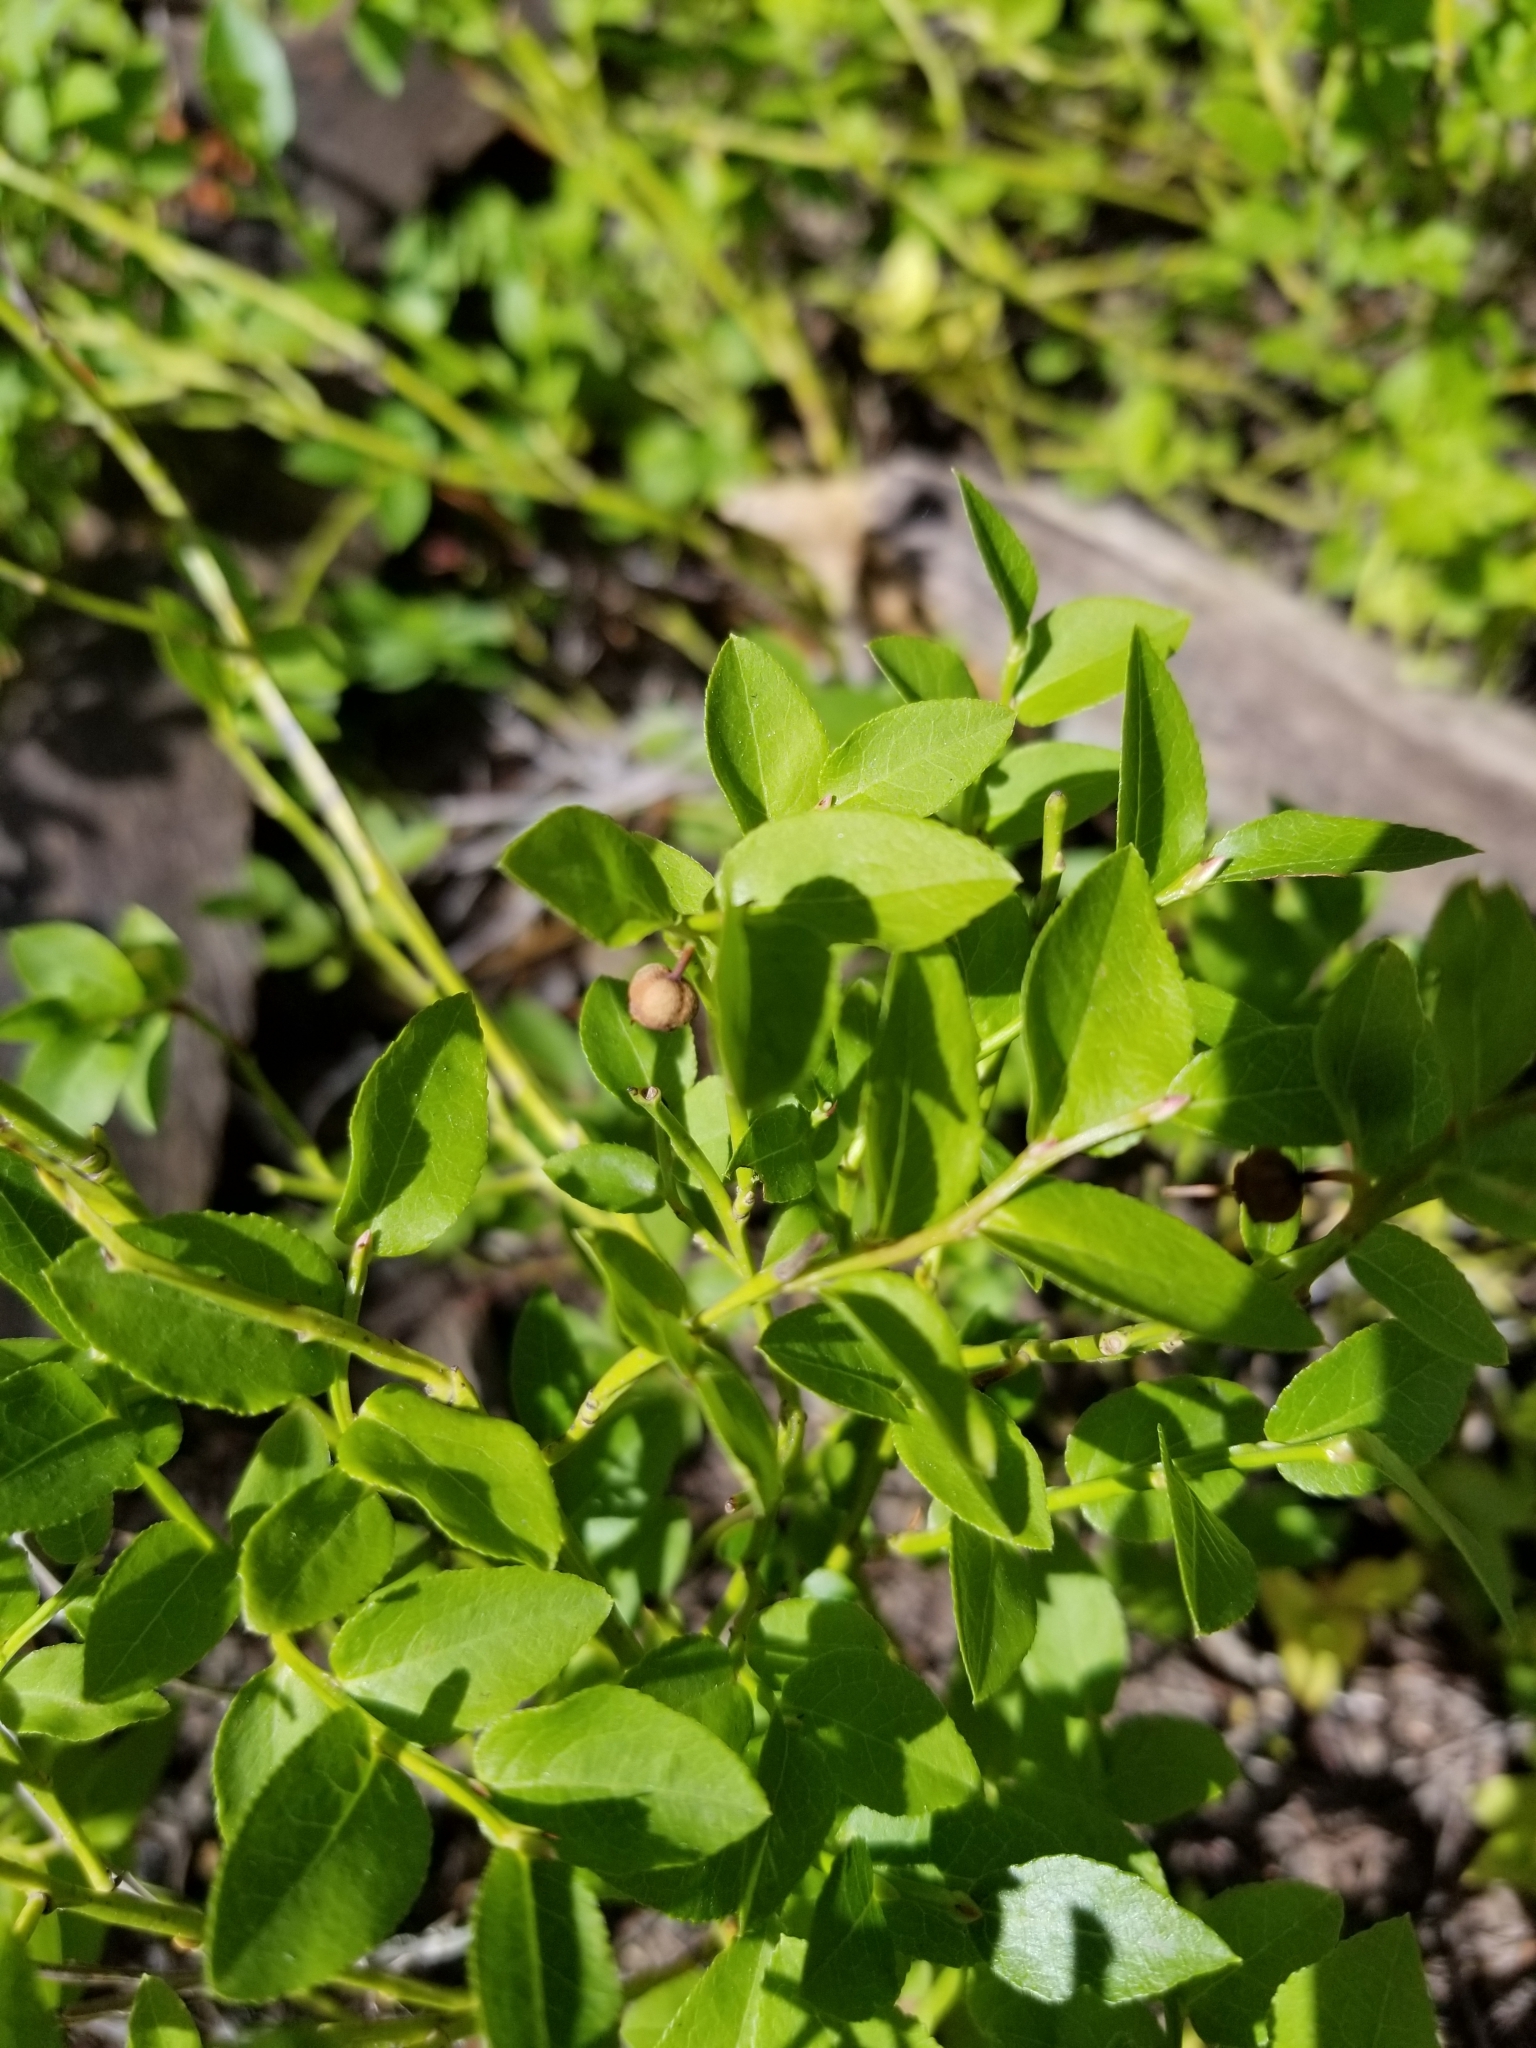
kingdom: Plantae
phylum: Tracheophyta
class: Magnoliopsida
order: Ericales
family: Ericaceae
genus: Vaccinium
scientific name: Vaccinium myrtillus
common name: Bilberry
